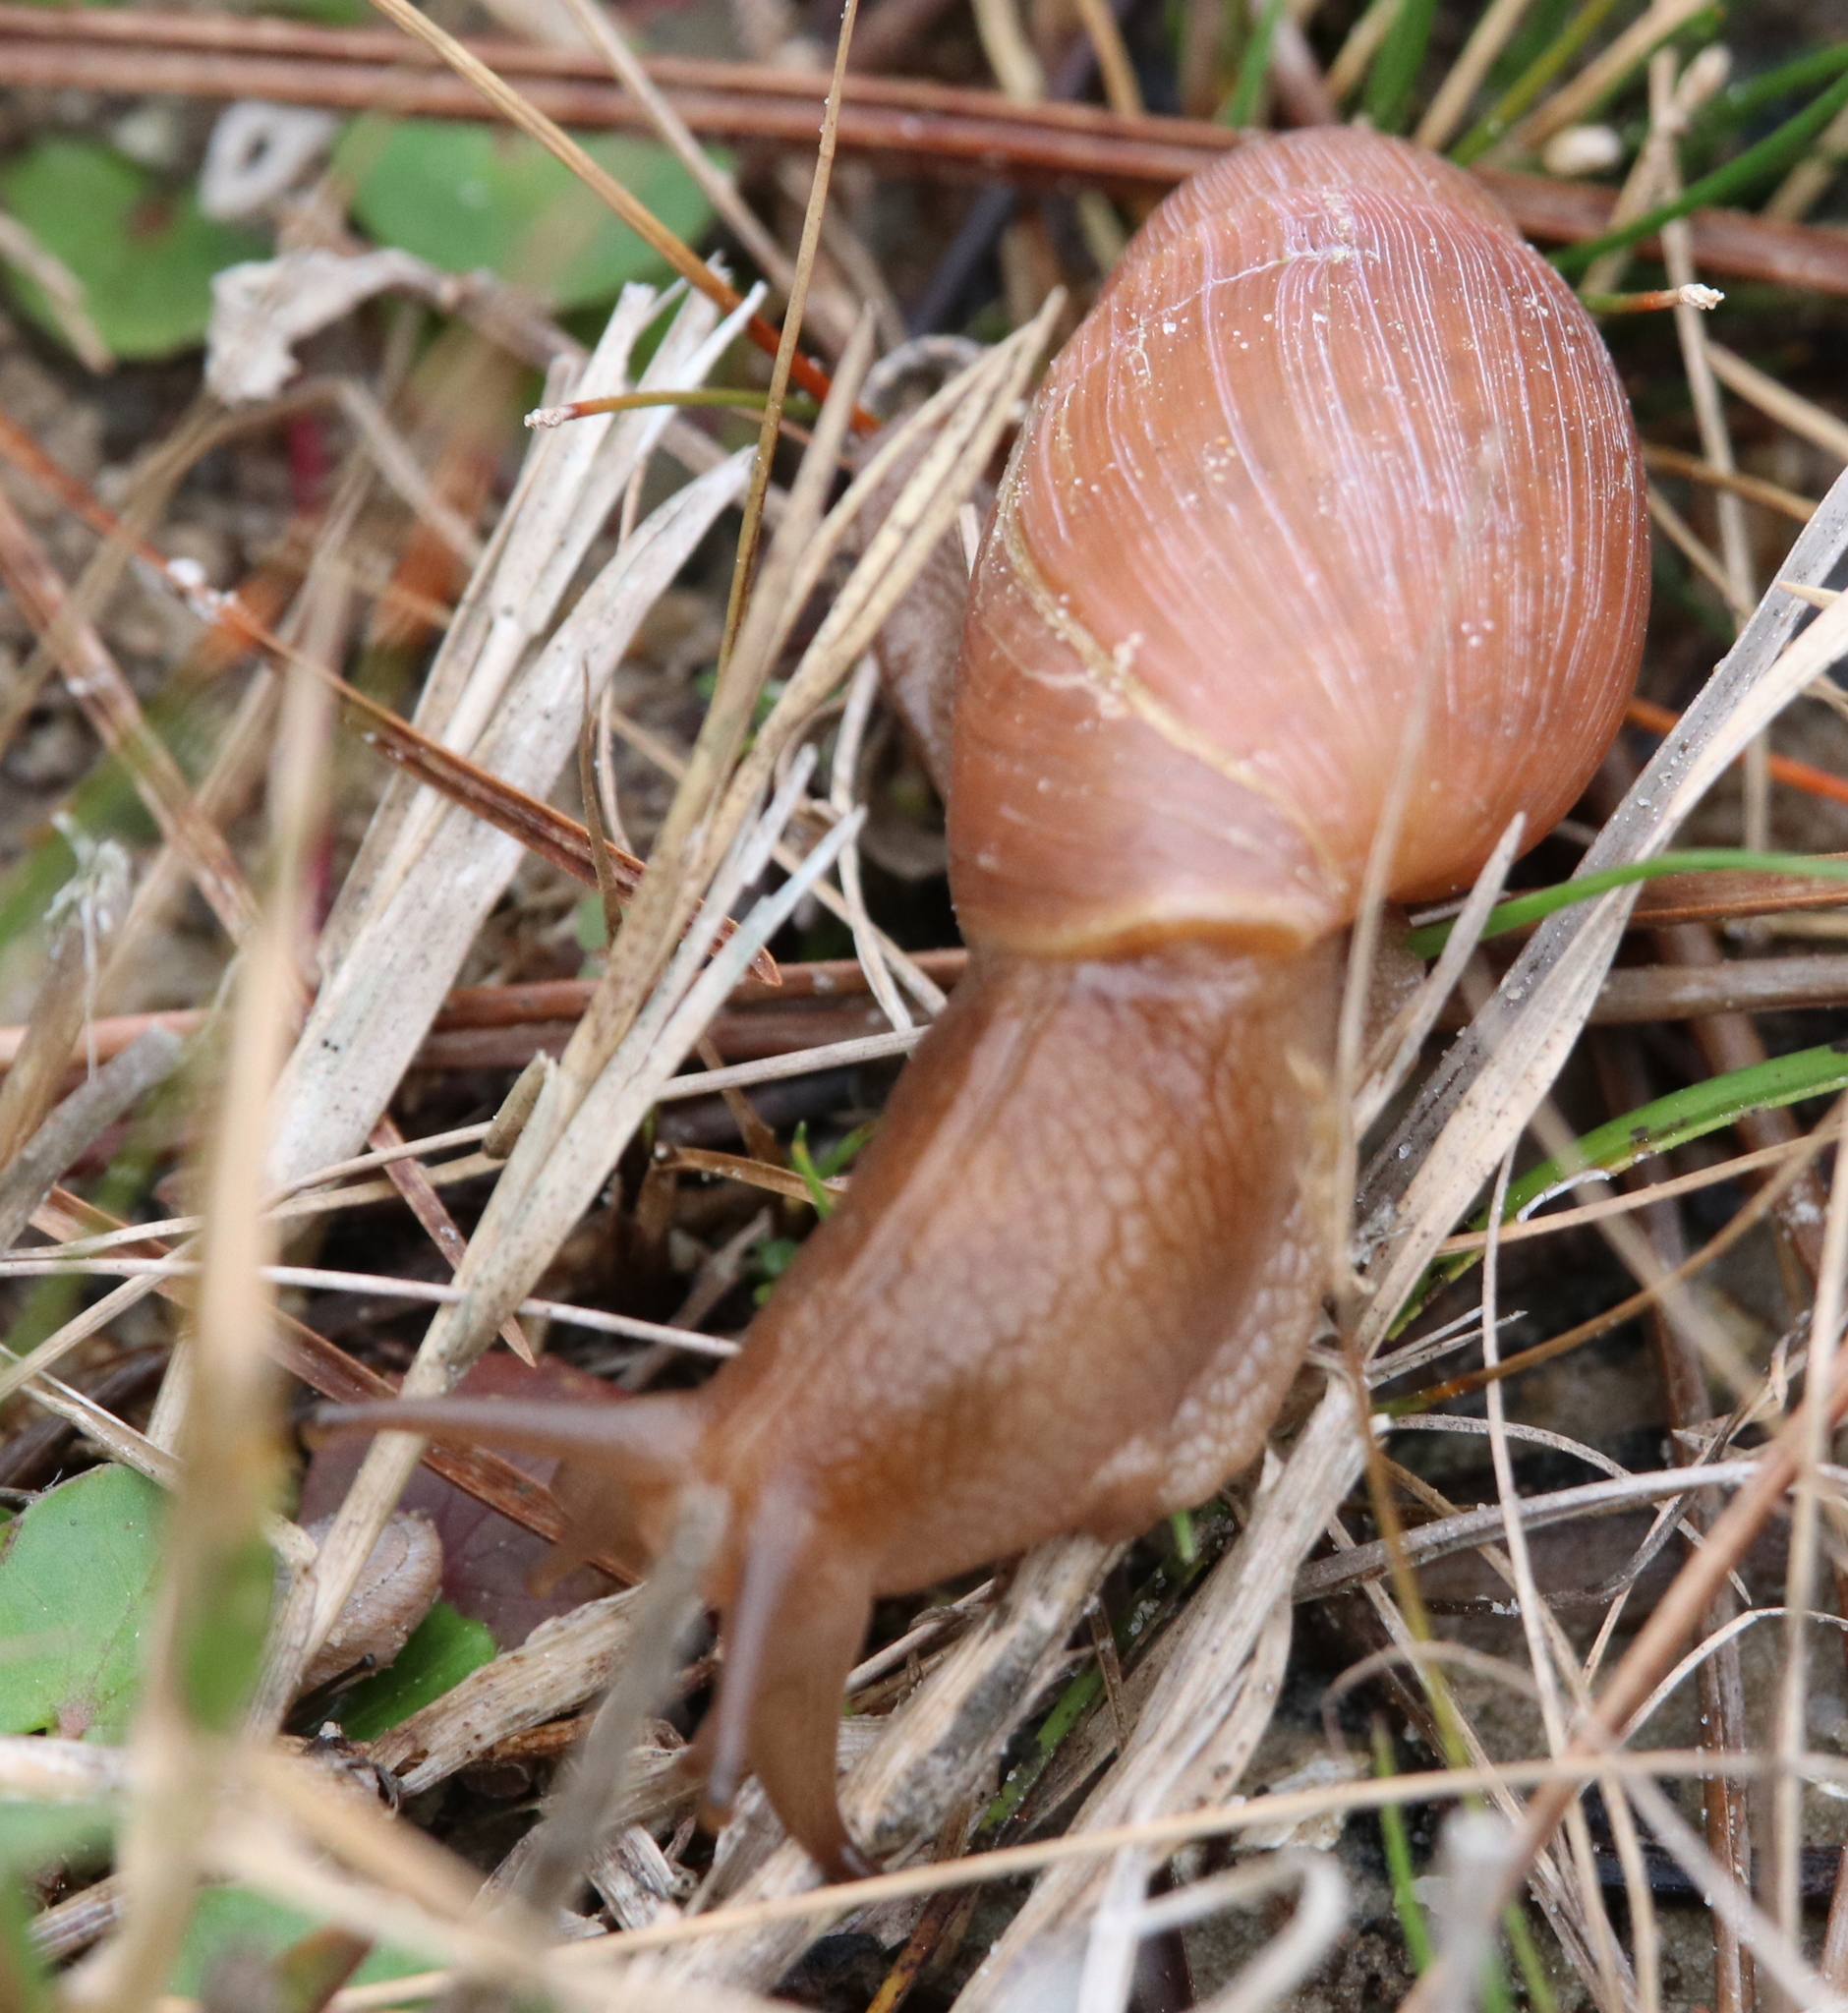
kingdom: Animalia
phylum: Mollusca
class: Gastropoda
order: Stylommatophora
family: Spiraxidae
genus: Euglandina
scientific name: Euglandina rosea
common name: Rosy wolfsnail
